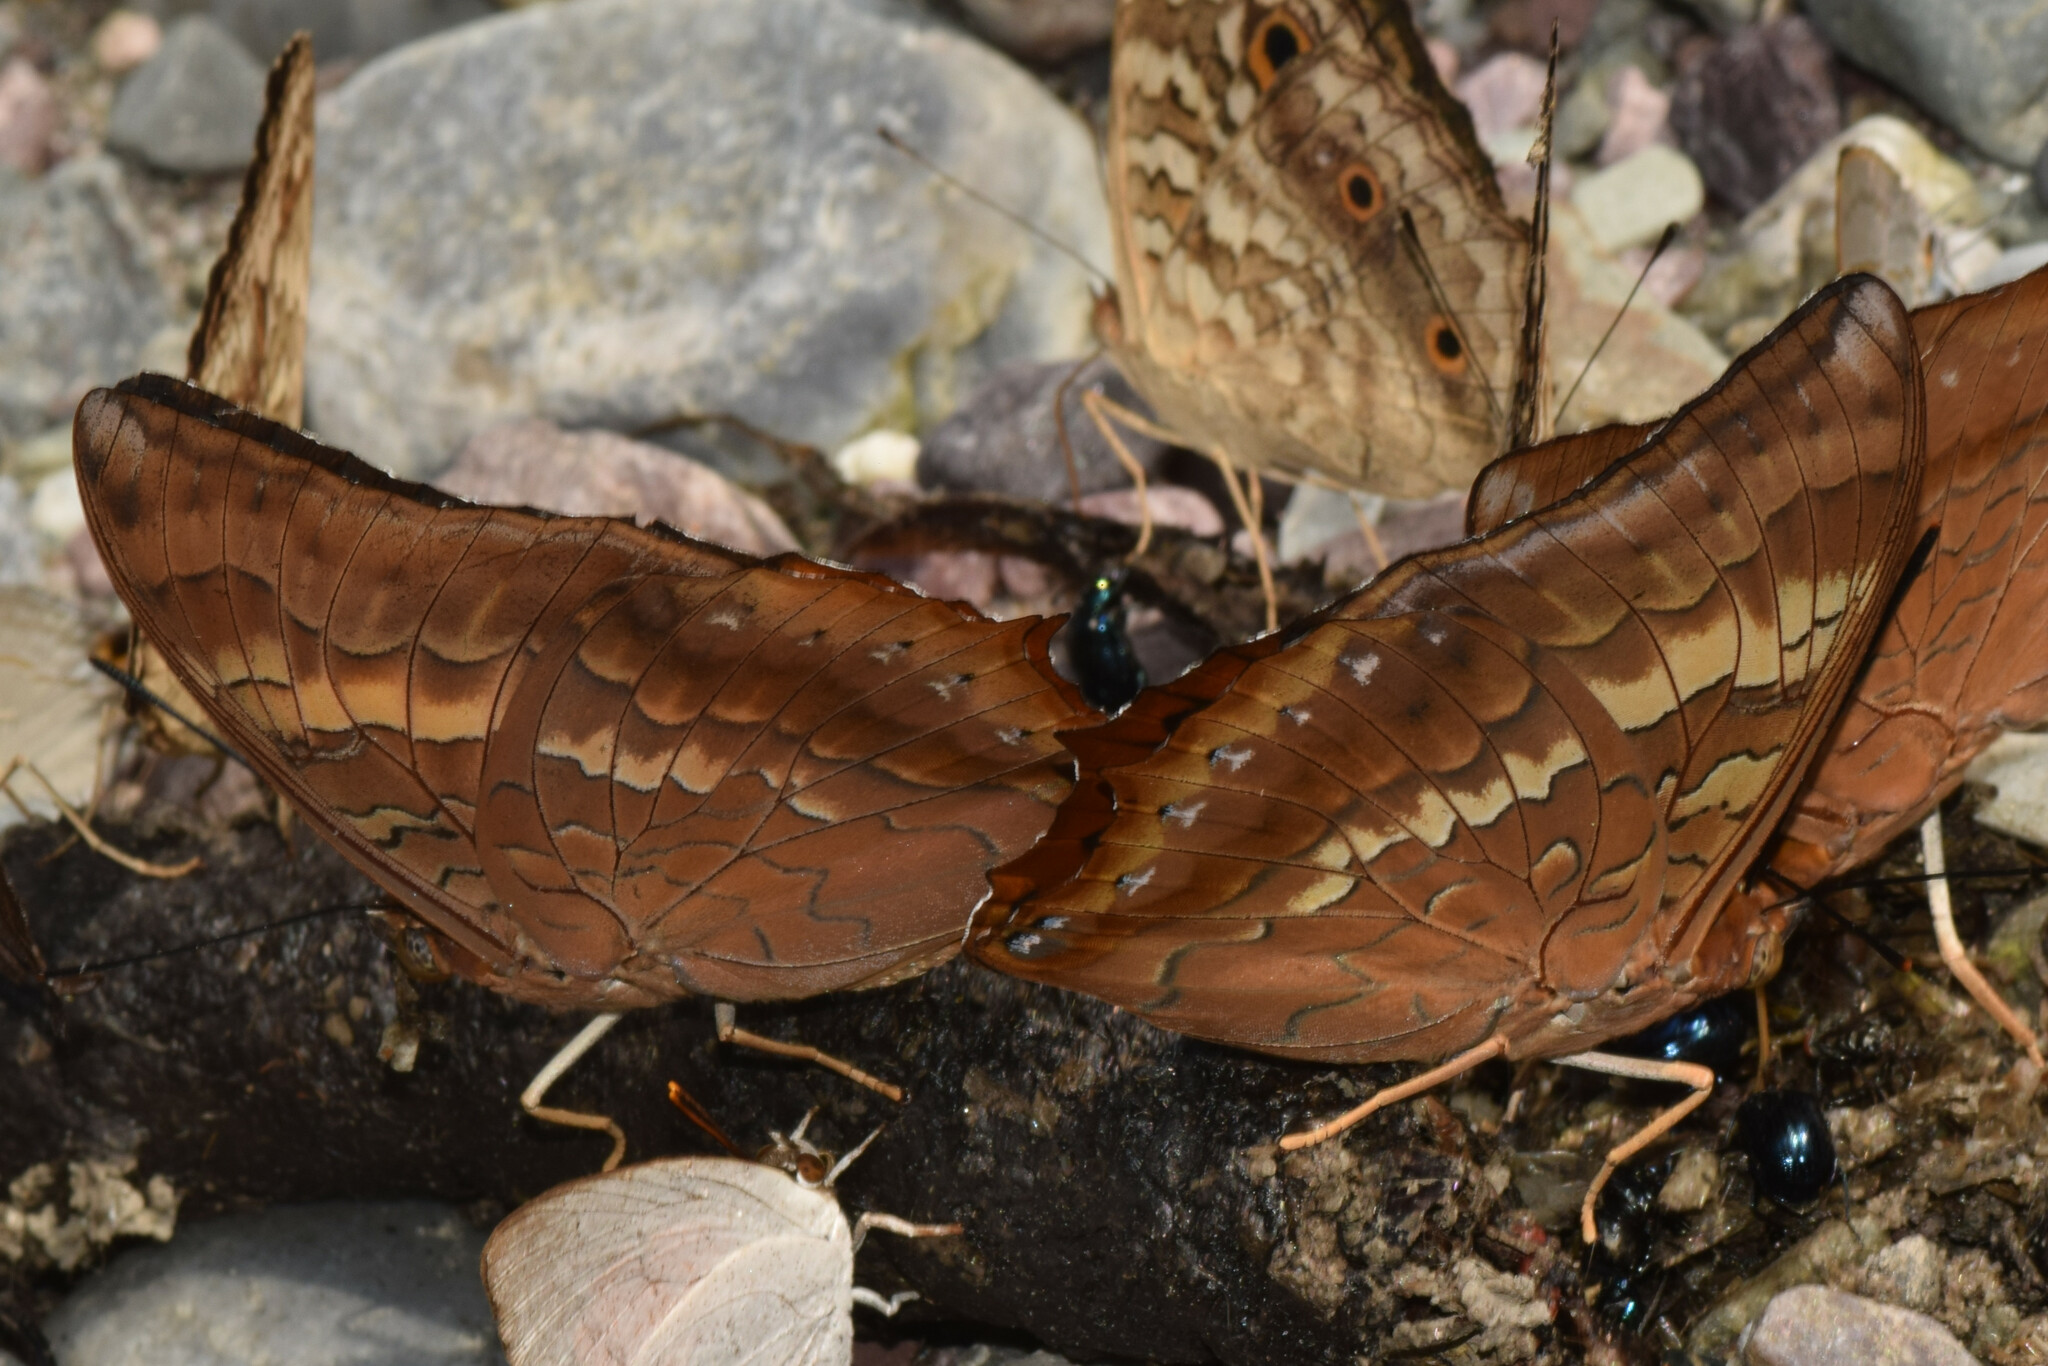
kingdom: Animalia
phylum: Arthropoda
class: Insecta
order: Lepidoptera
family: Nymphalidae
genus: Charaxes
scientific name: Charaxes bernardus
